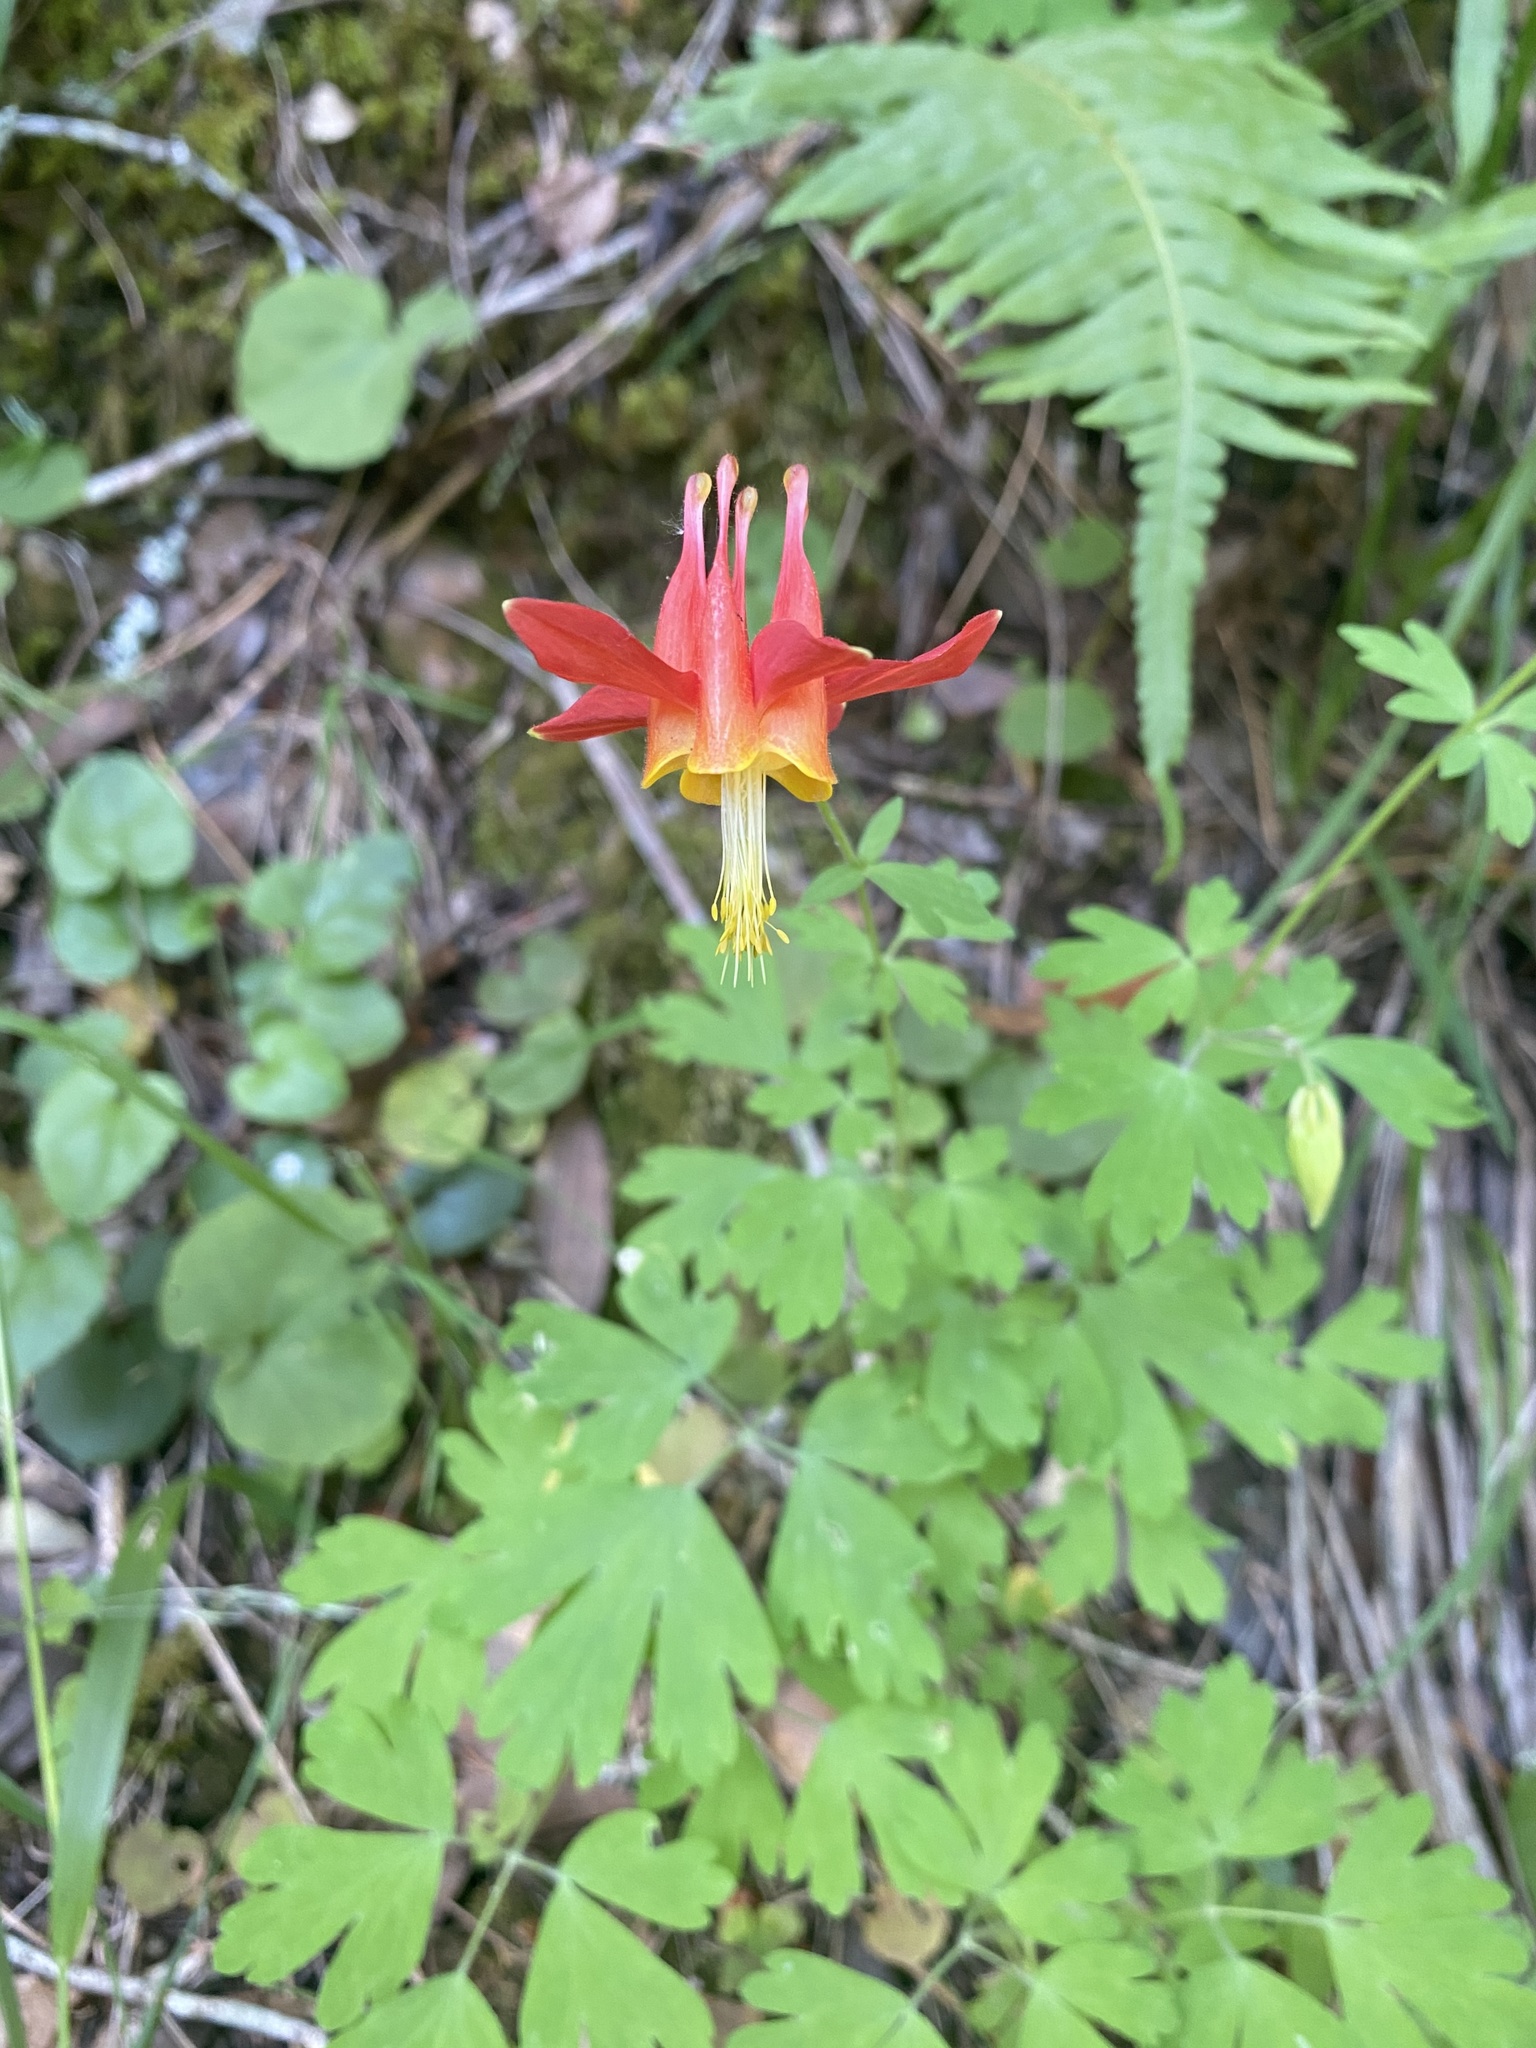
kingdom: Plantae
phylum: Tracheophyta
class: Magnoliopsida
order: Ranunculales
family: Ranunculaceae
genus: Aquilegia
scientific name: Aquilegia formosa
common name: Sitka columbine
